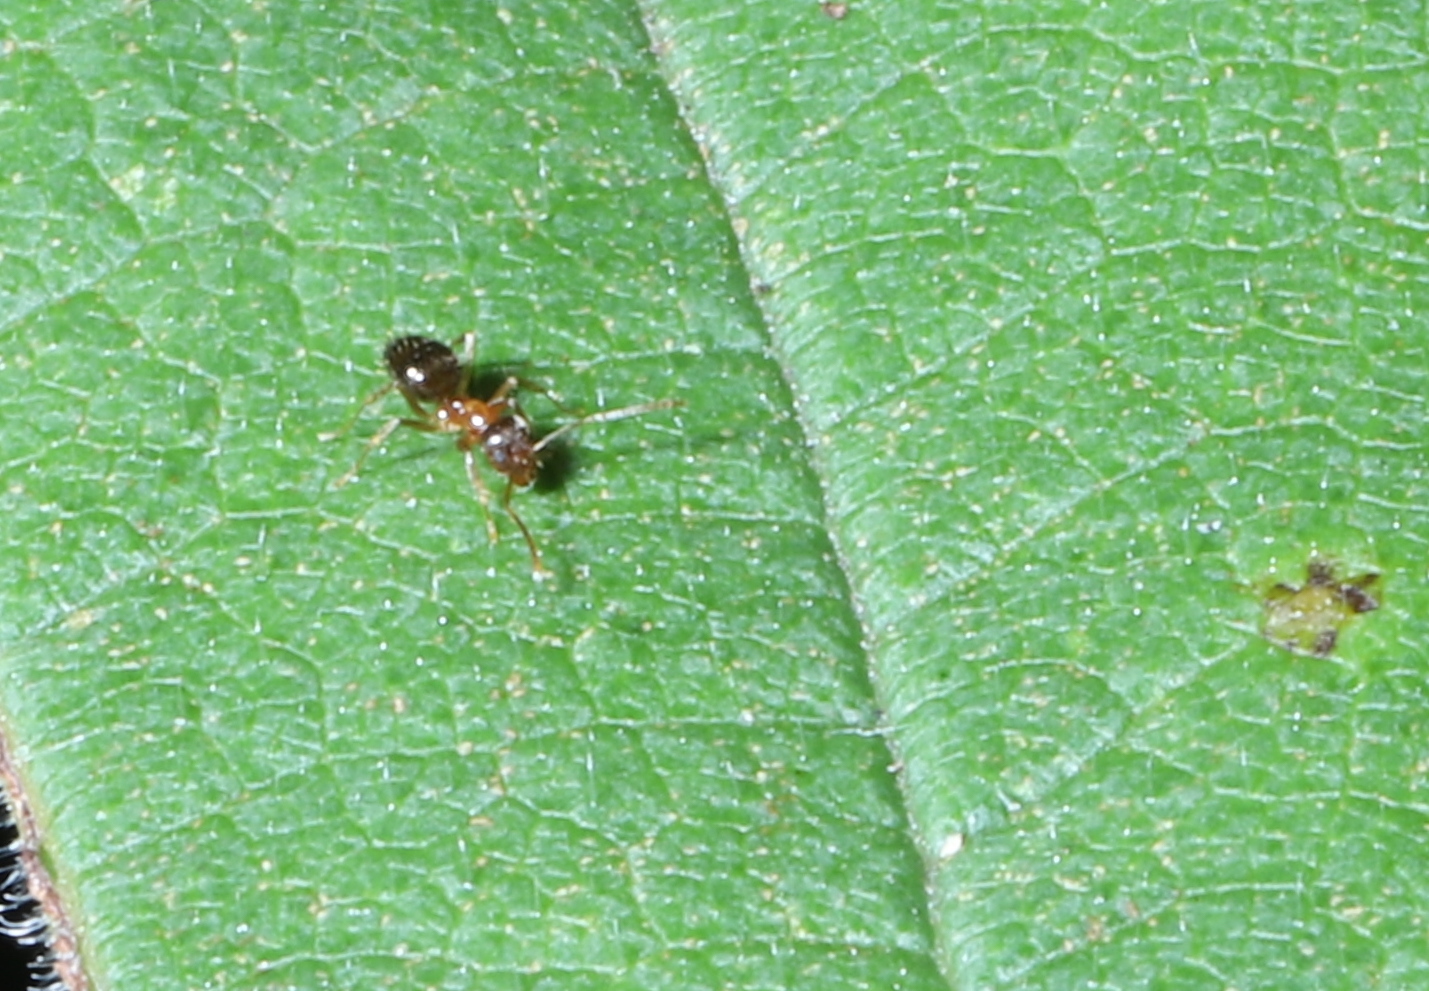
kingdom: Animalia
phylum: Arthropoda
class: Insecta
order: Hymenoptera
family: Formicidae
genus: Paratrechina
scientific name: Paratrechina flavipes
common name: Eastern asian formicine ant
